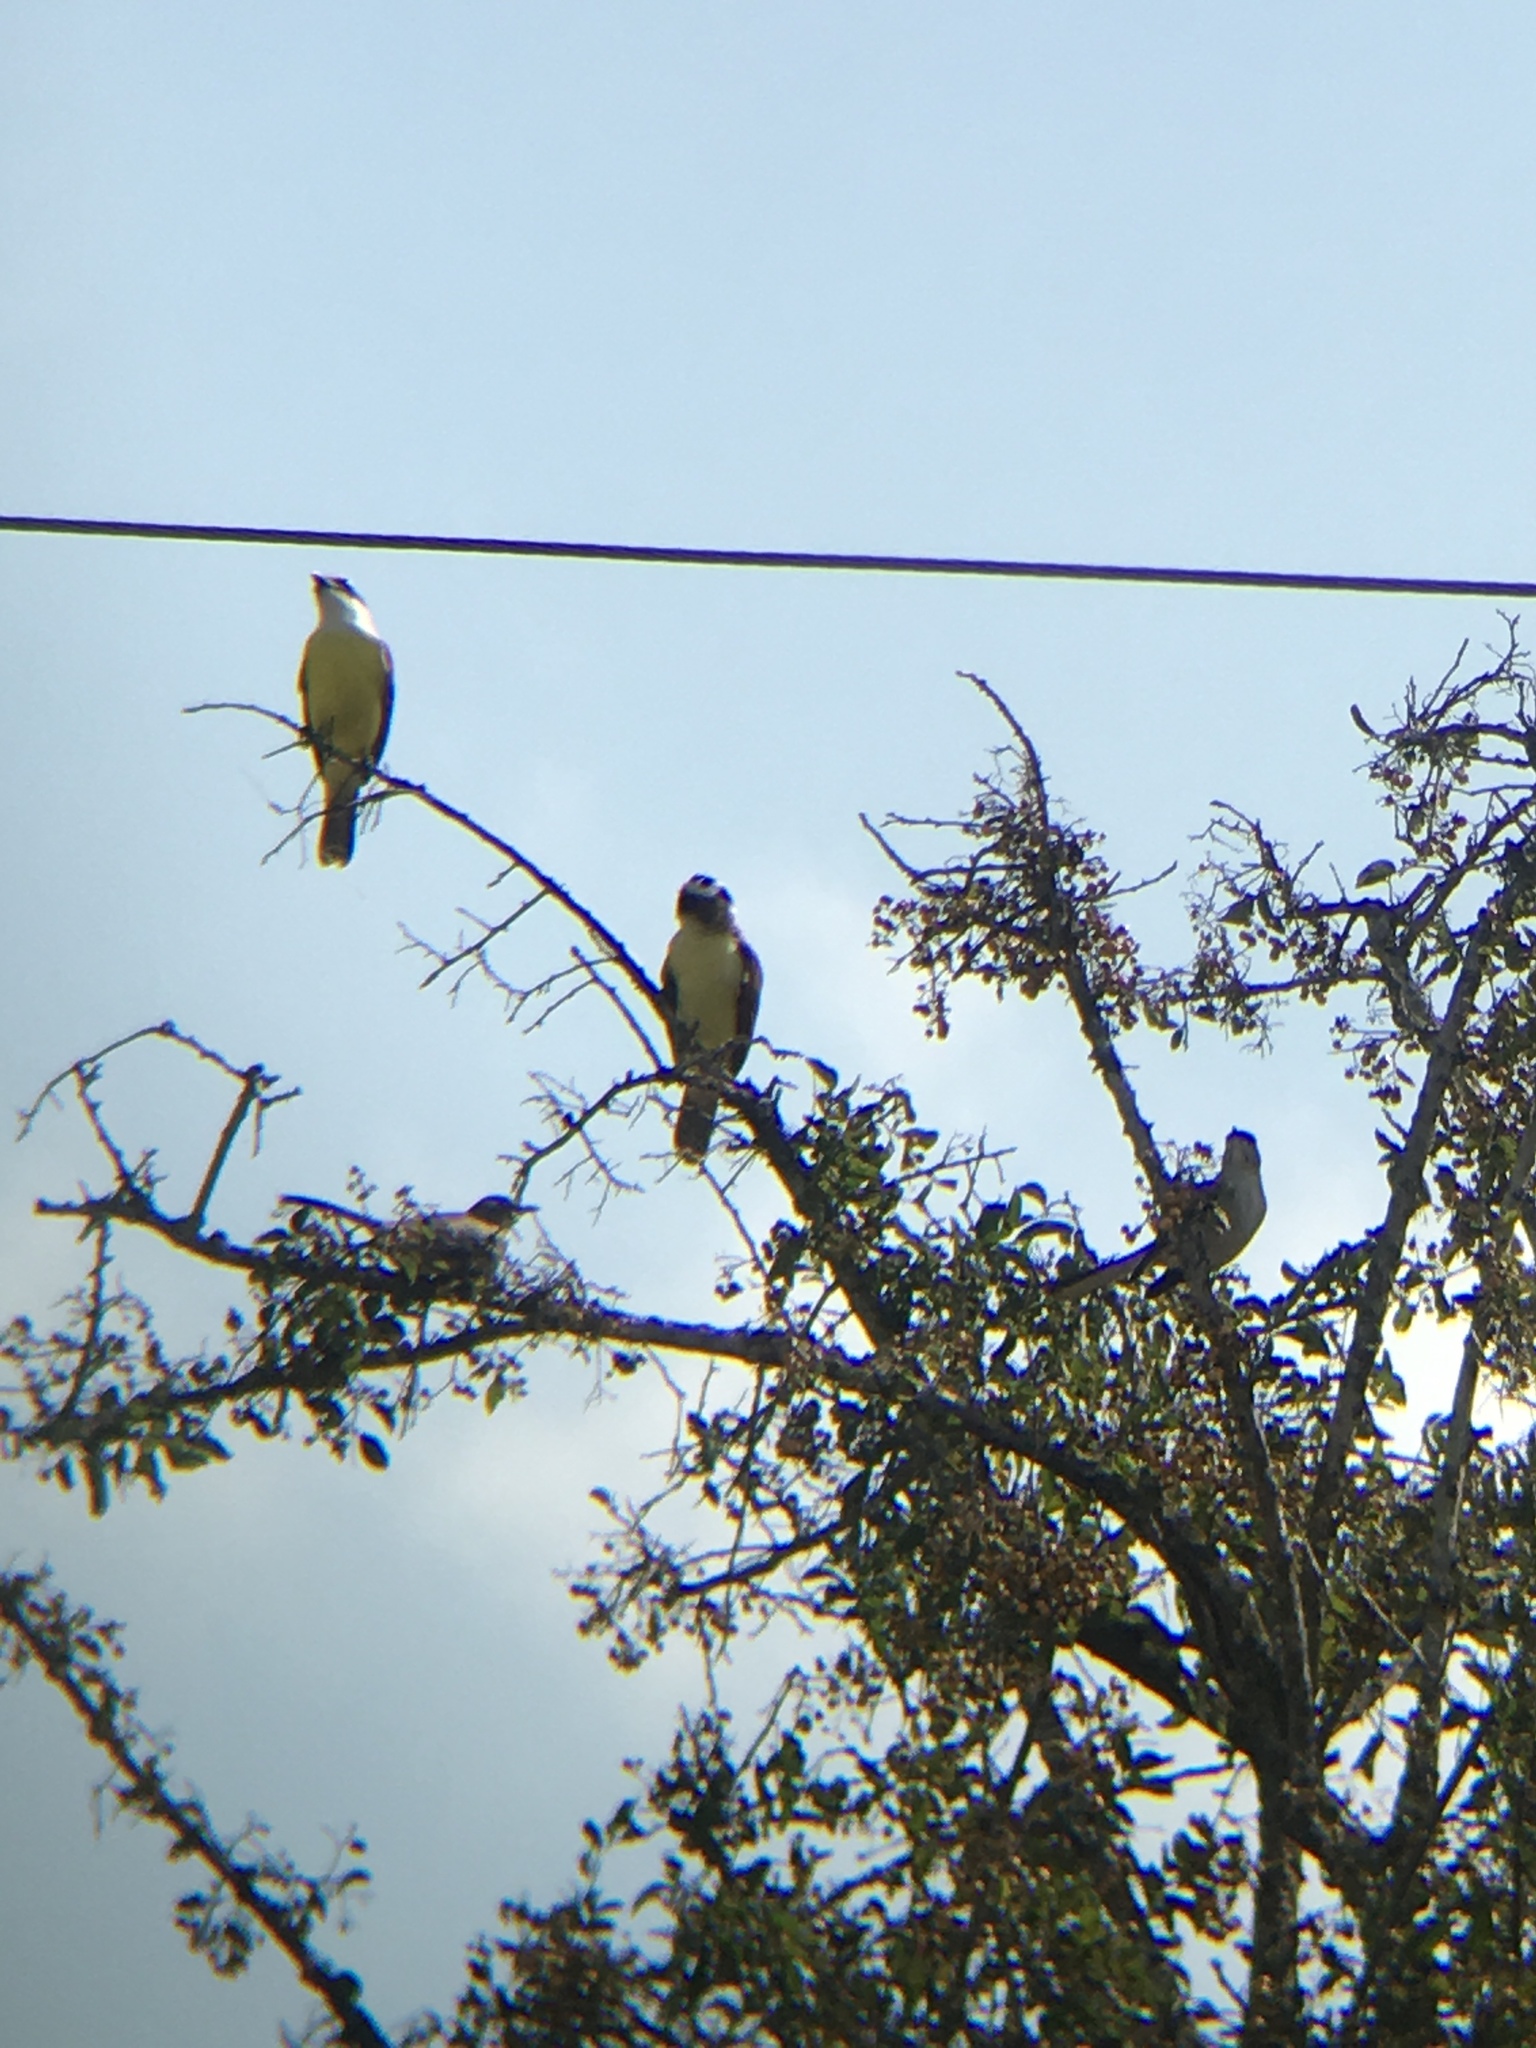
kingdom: Animalia
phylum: Chordata
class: Aves
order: Passeriformes
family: Tyrannidae
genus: Pitangus
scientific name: Pitangus sulphuratus
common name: Great kiskadee
